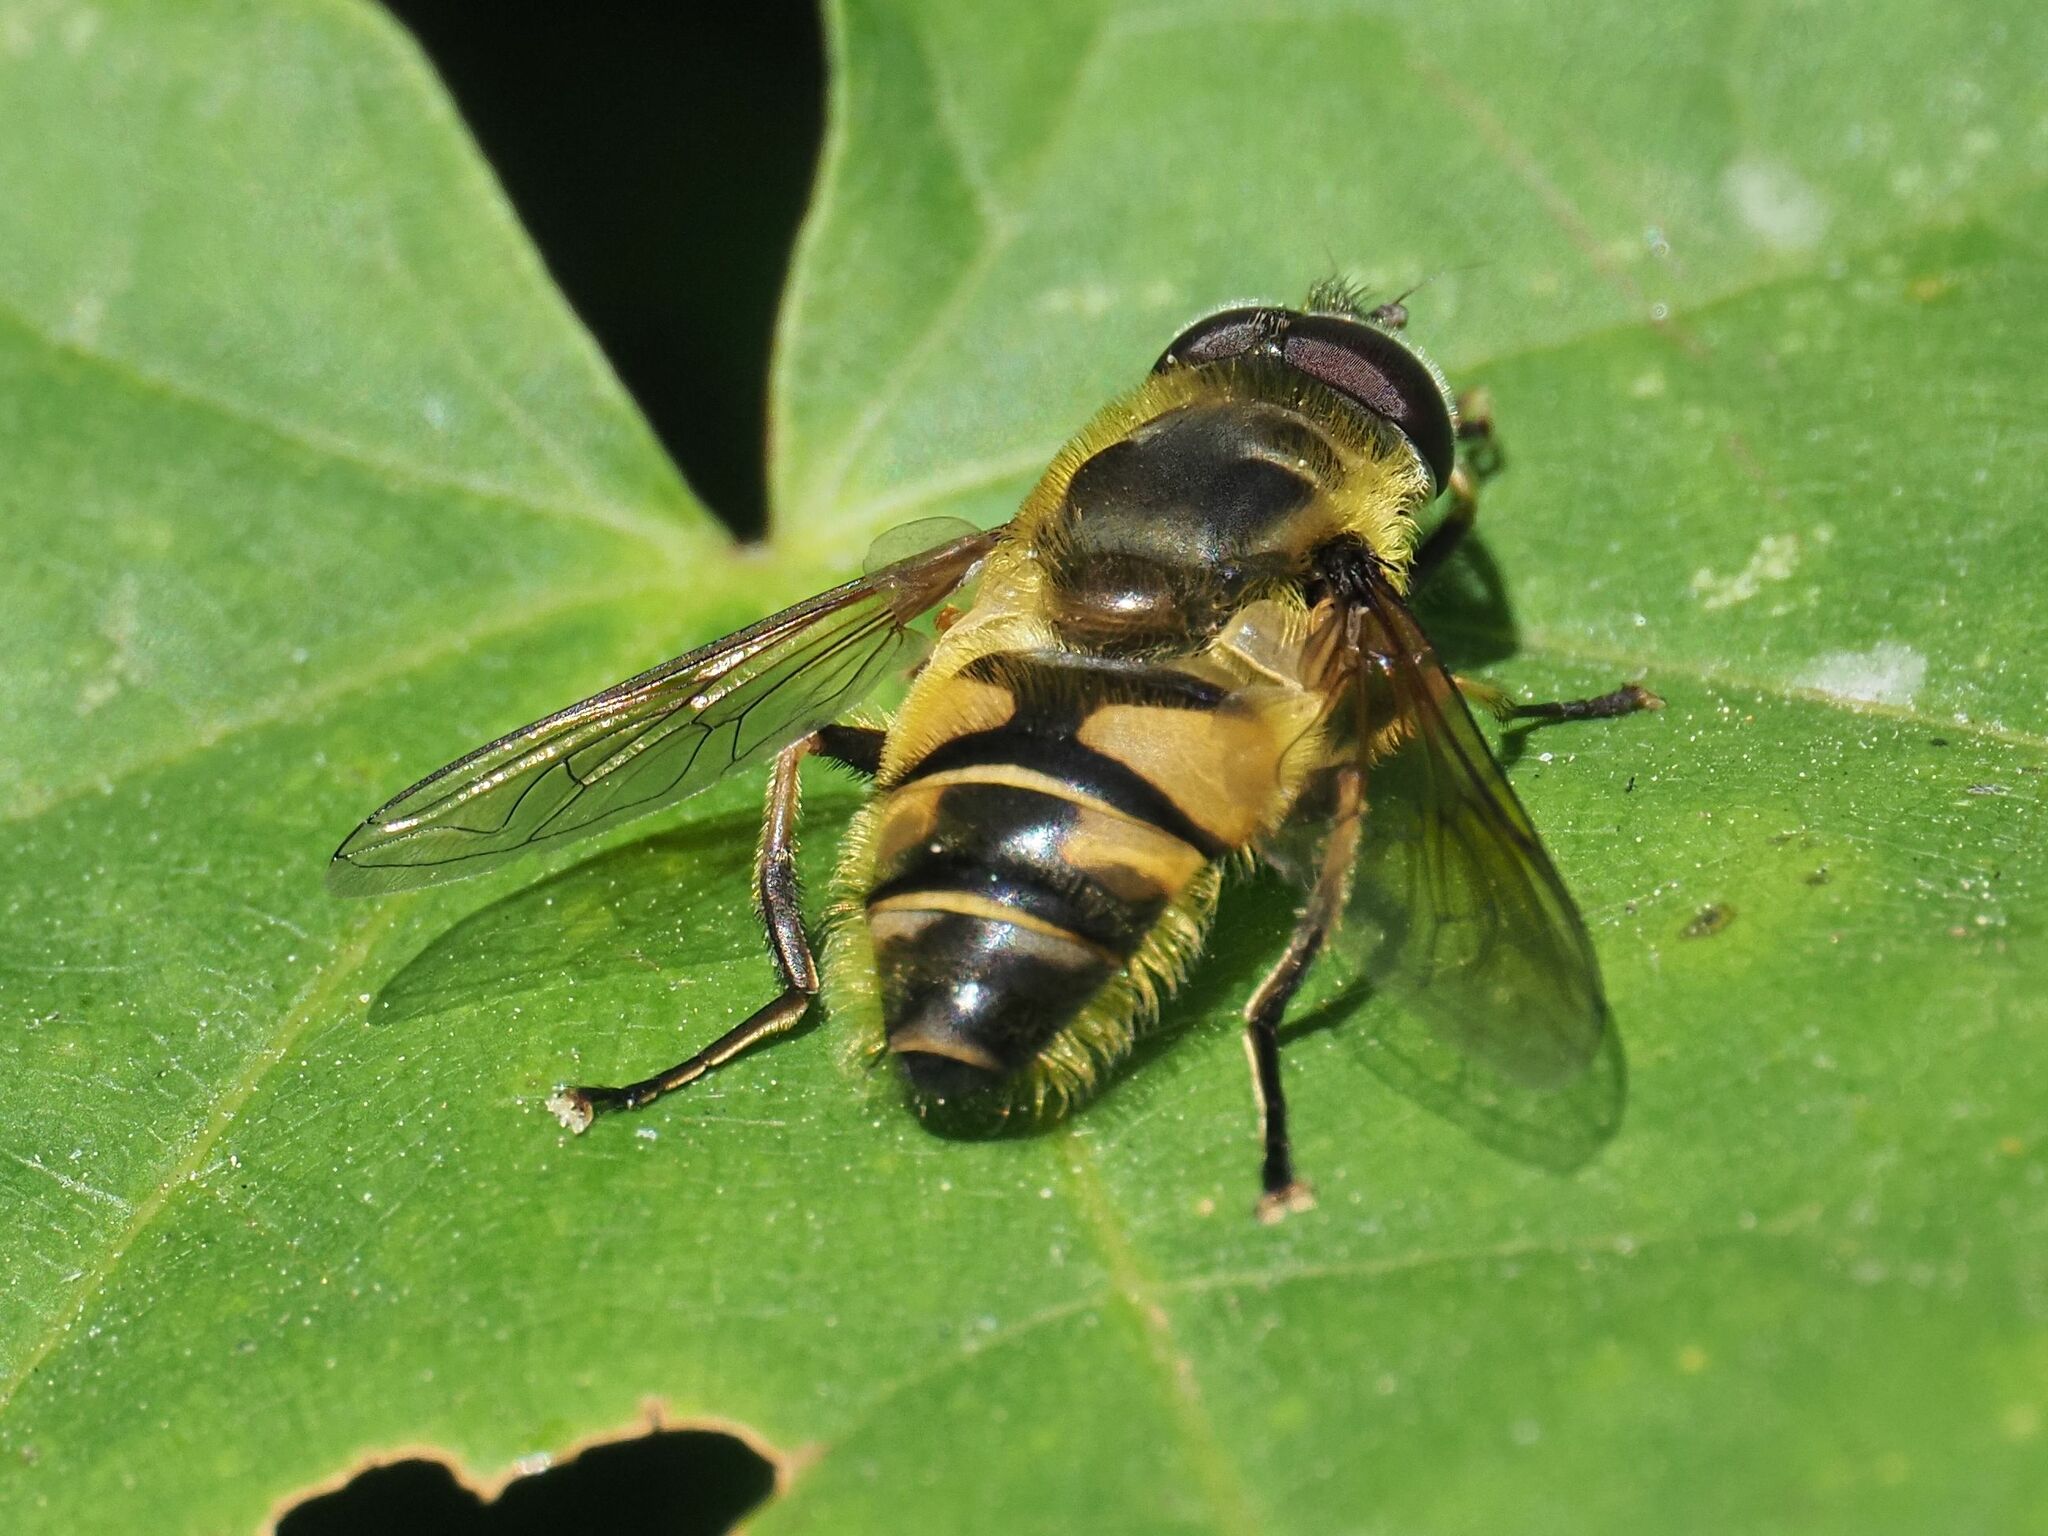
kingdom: Animalia
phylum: Arthropoda
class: Insecta
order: Diptera
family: Syrphidae
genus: Myathropa
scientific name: Myathropa florea
